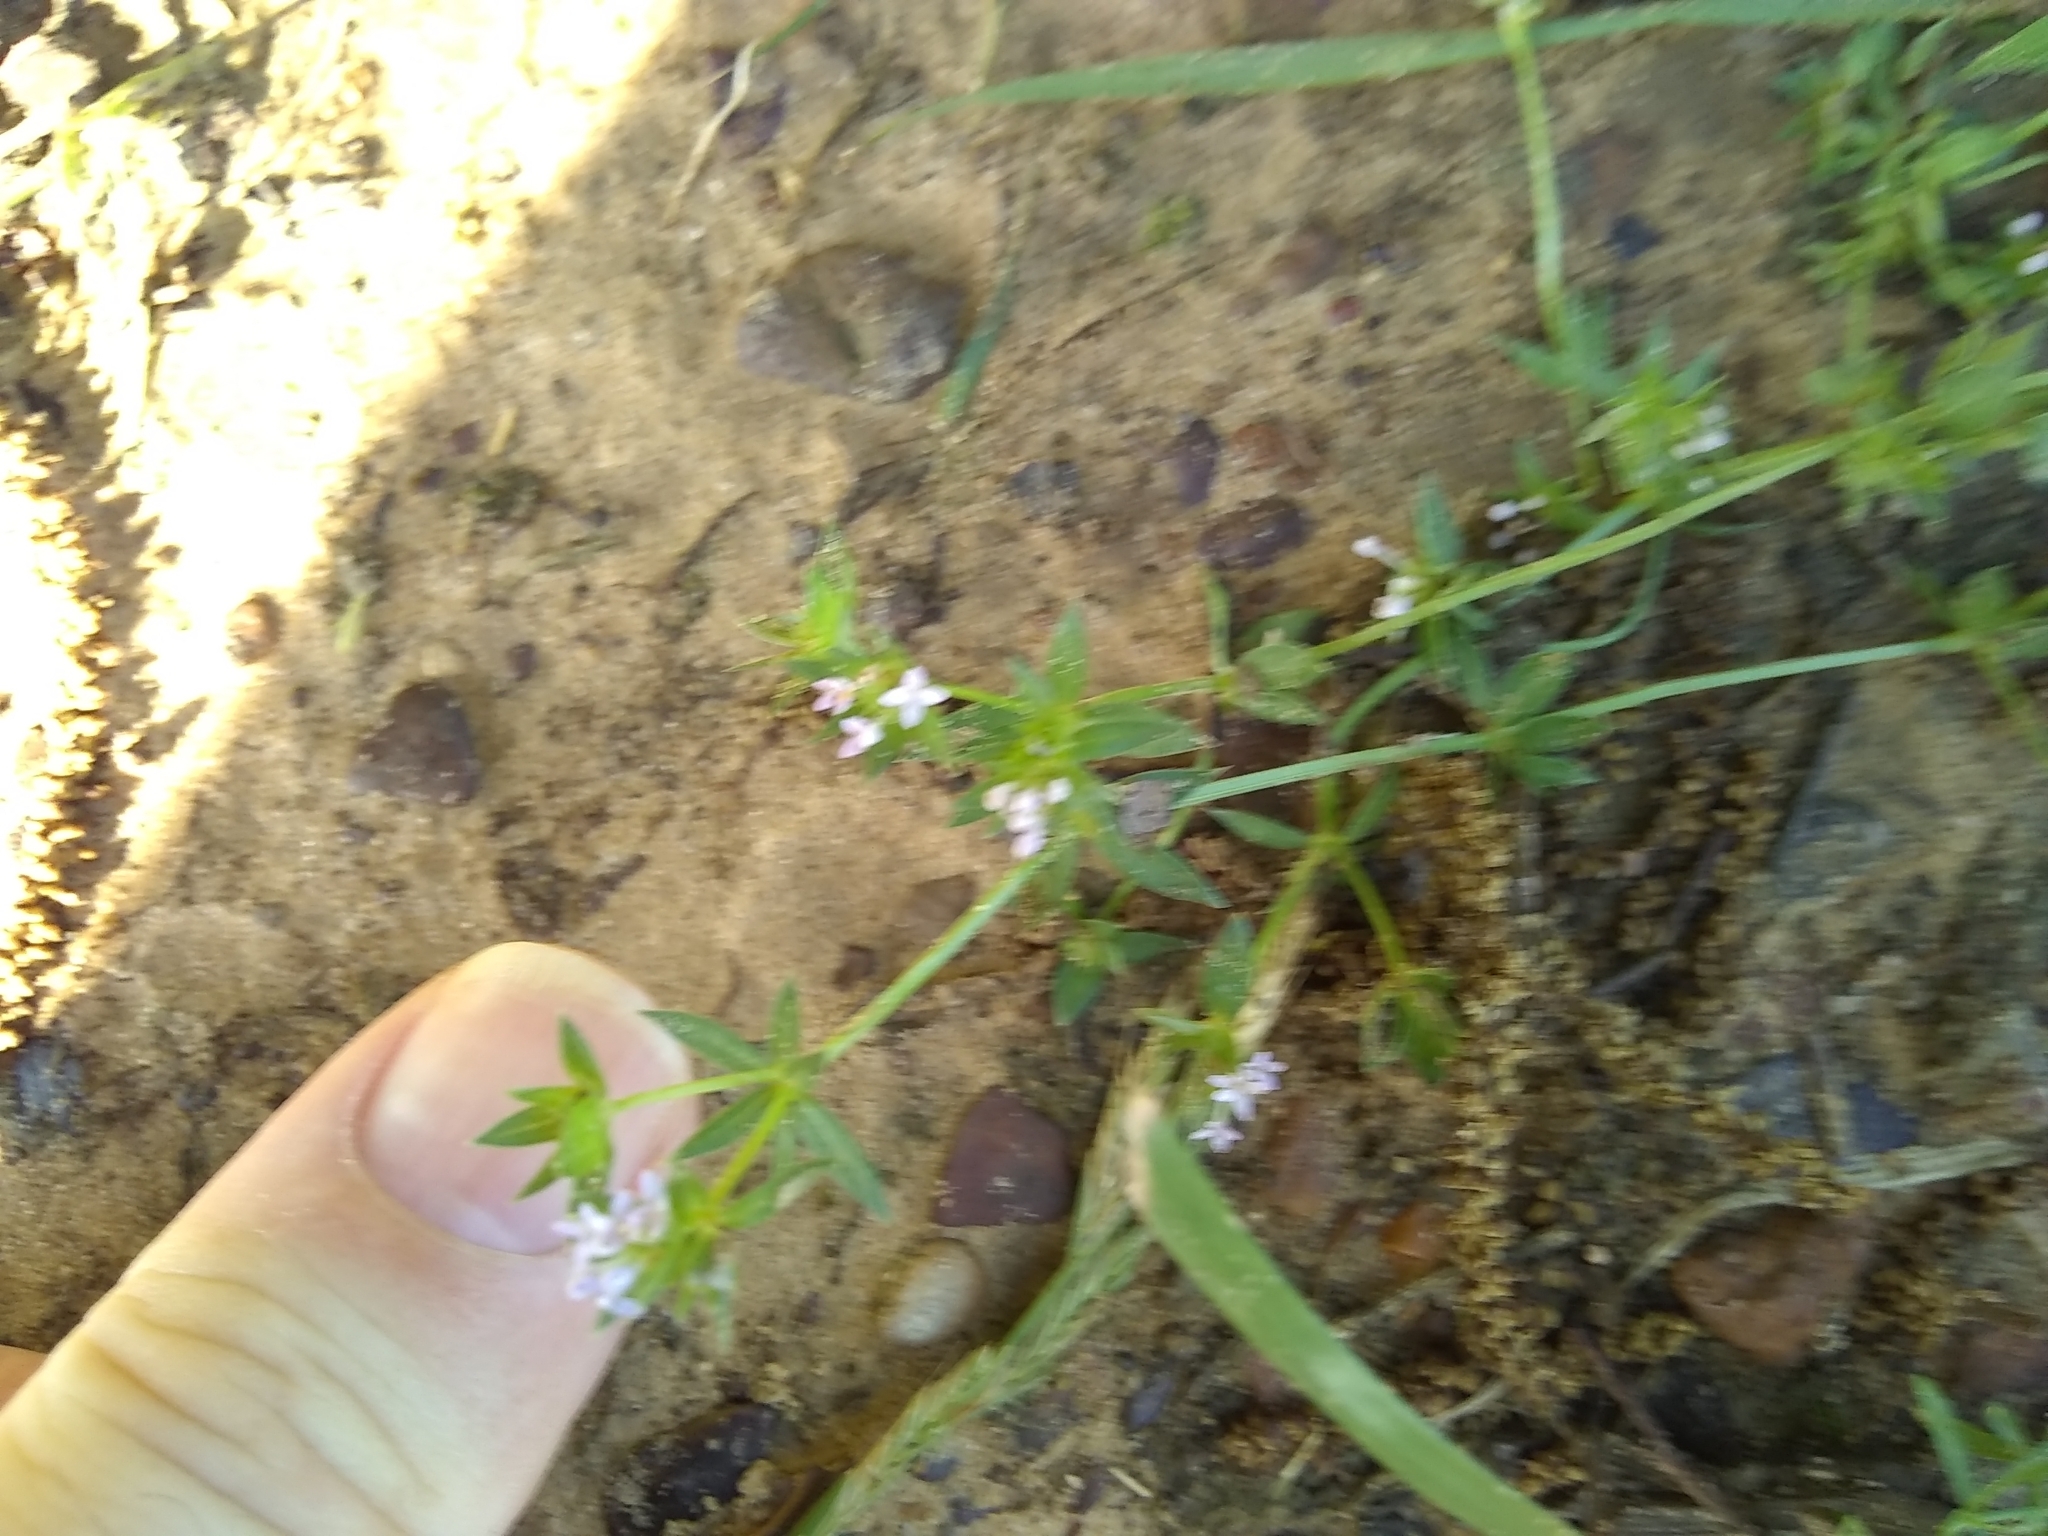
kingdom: Plantae
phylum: Tracheophyta
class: Magnoliopsida
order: Gentianales
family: Rubiaceae
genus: Sherardia
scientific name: Sherardia arvensis
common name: Field madder
